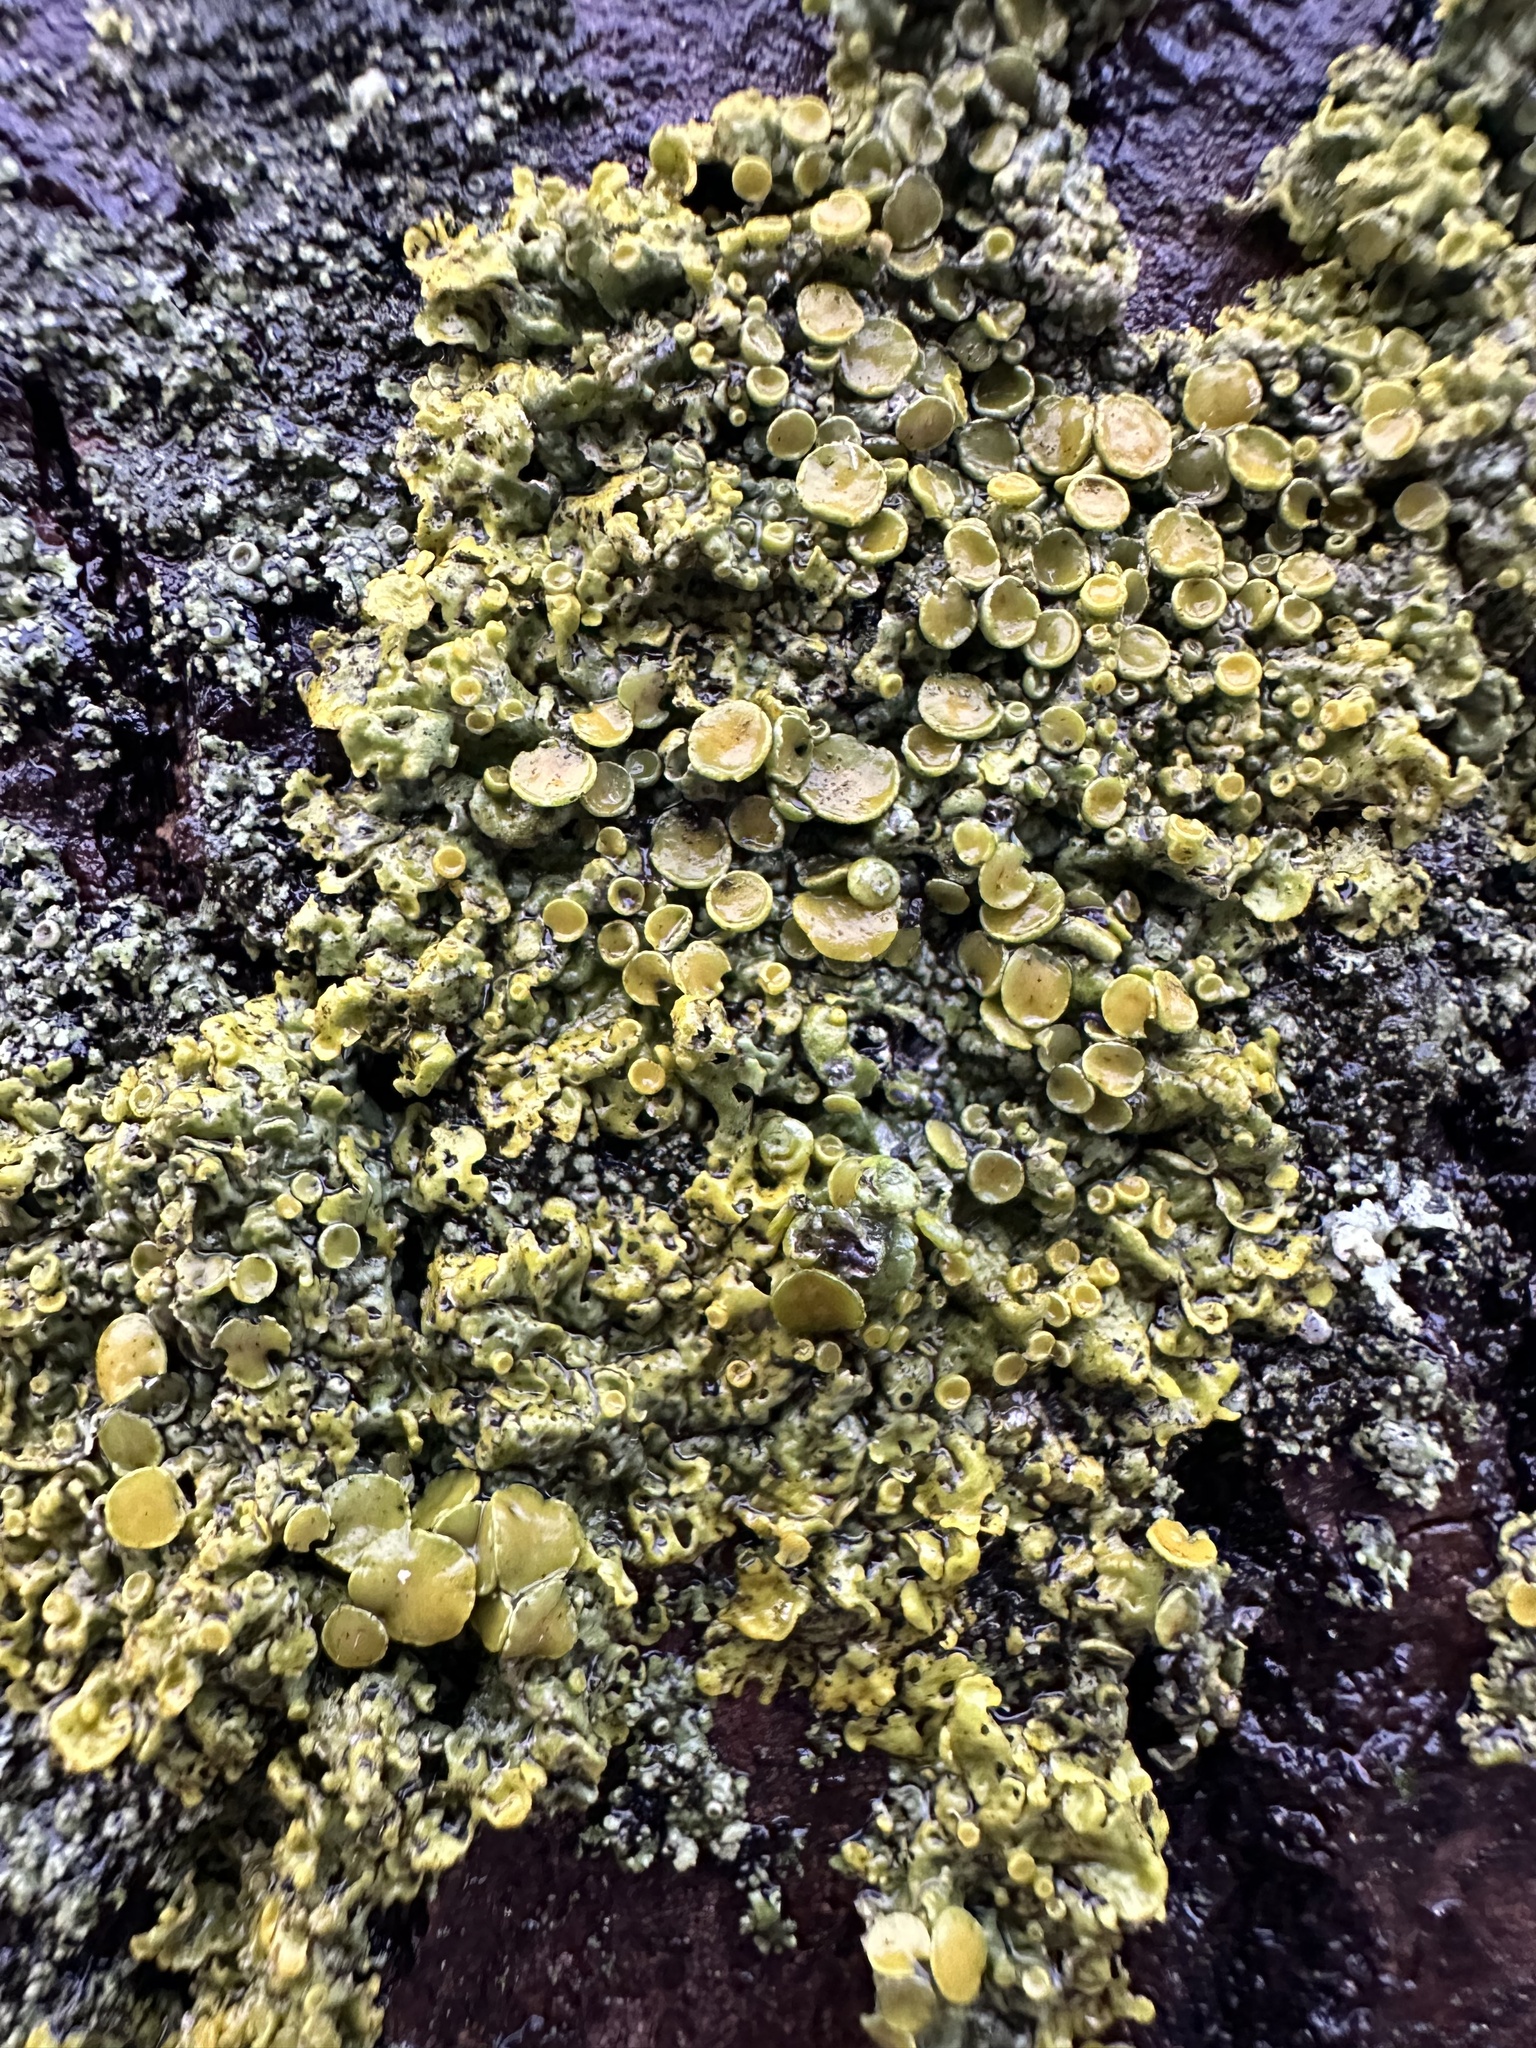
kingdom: Fungi
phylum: Ascomycota
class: Lecanoromycetes
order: Teloschistales
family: Teloschistaceae
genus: Xanthoria
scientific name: Xanthoria parietina
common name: Common orange lichen
